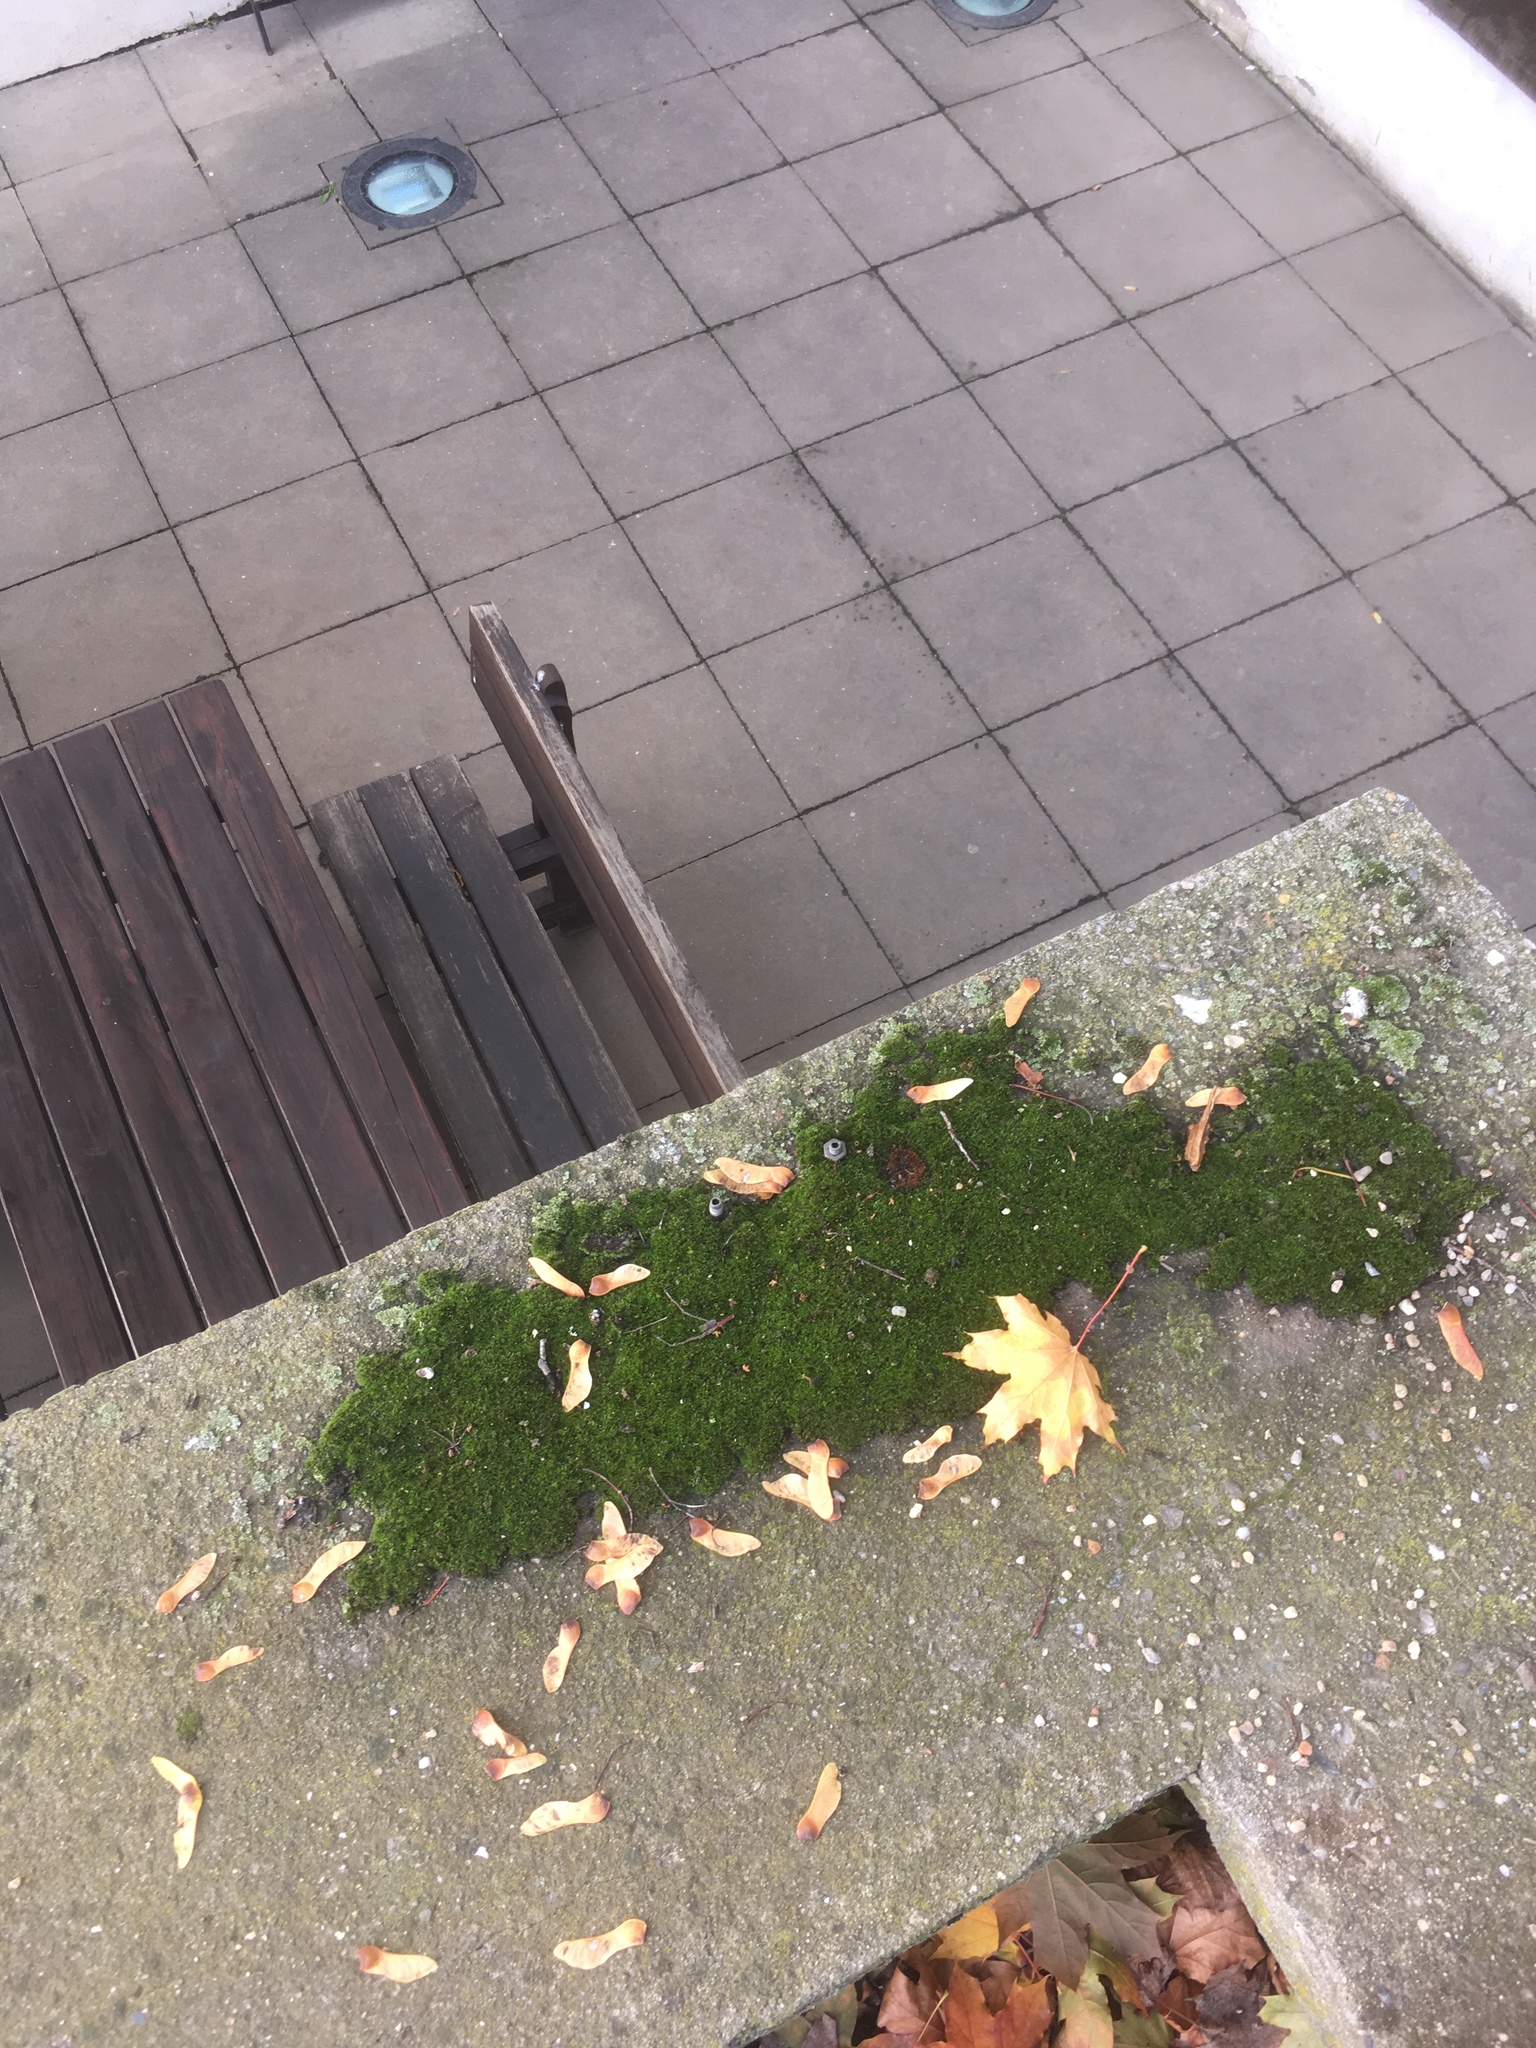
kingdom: Plantae
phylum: Bryophyta
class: Bryopsida
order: Pottiales
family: Pottiaceae
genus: Syntrichia
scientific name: Syntrichia ruralis
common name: Sidewalk screw moss
